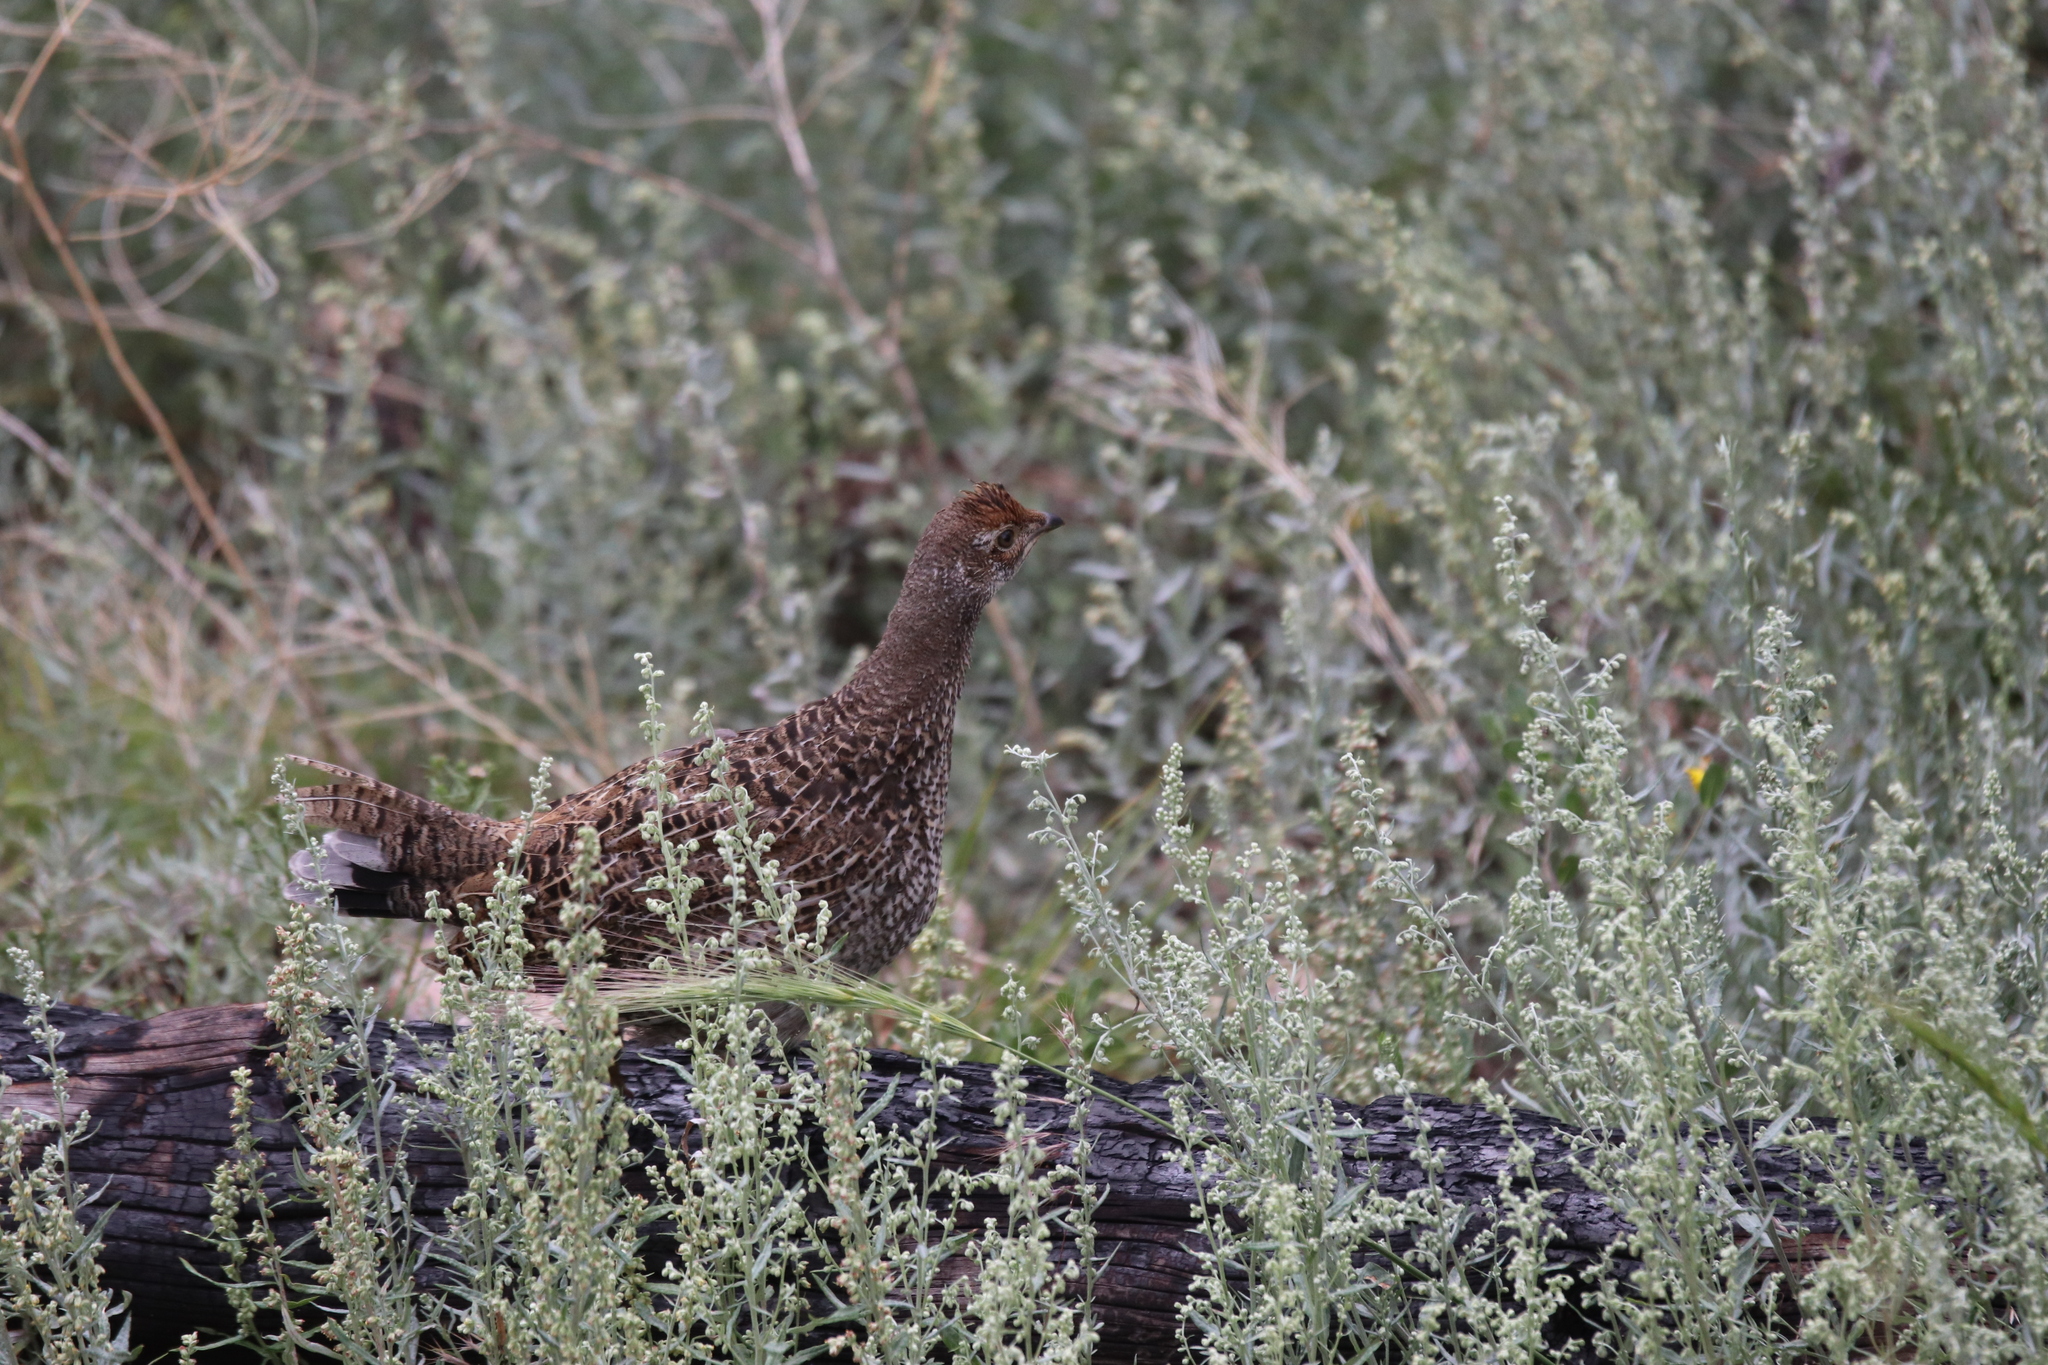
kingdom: Animalia
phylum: Chordata
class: Aves
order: Galliformes
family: Phasianidae
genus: Dendragapus
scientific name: Dendragapus obscurus
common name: Dusky grouse
